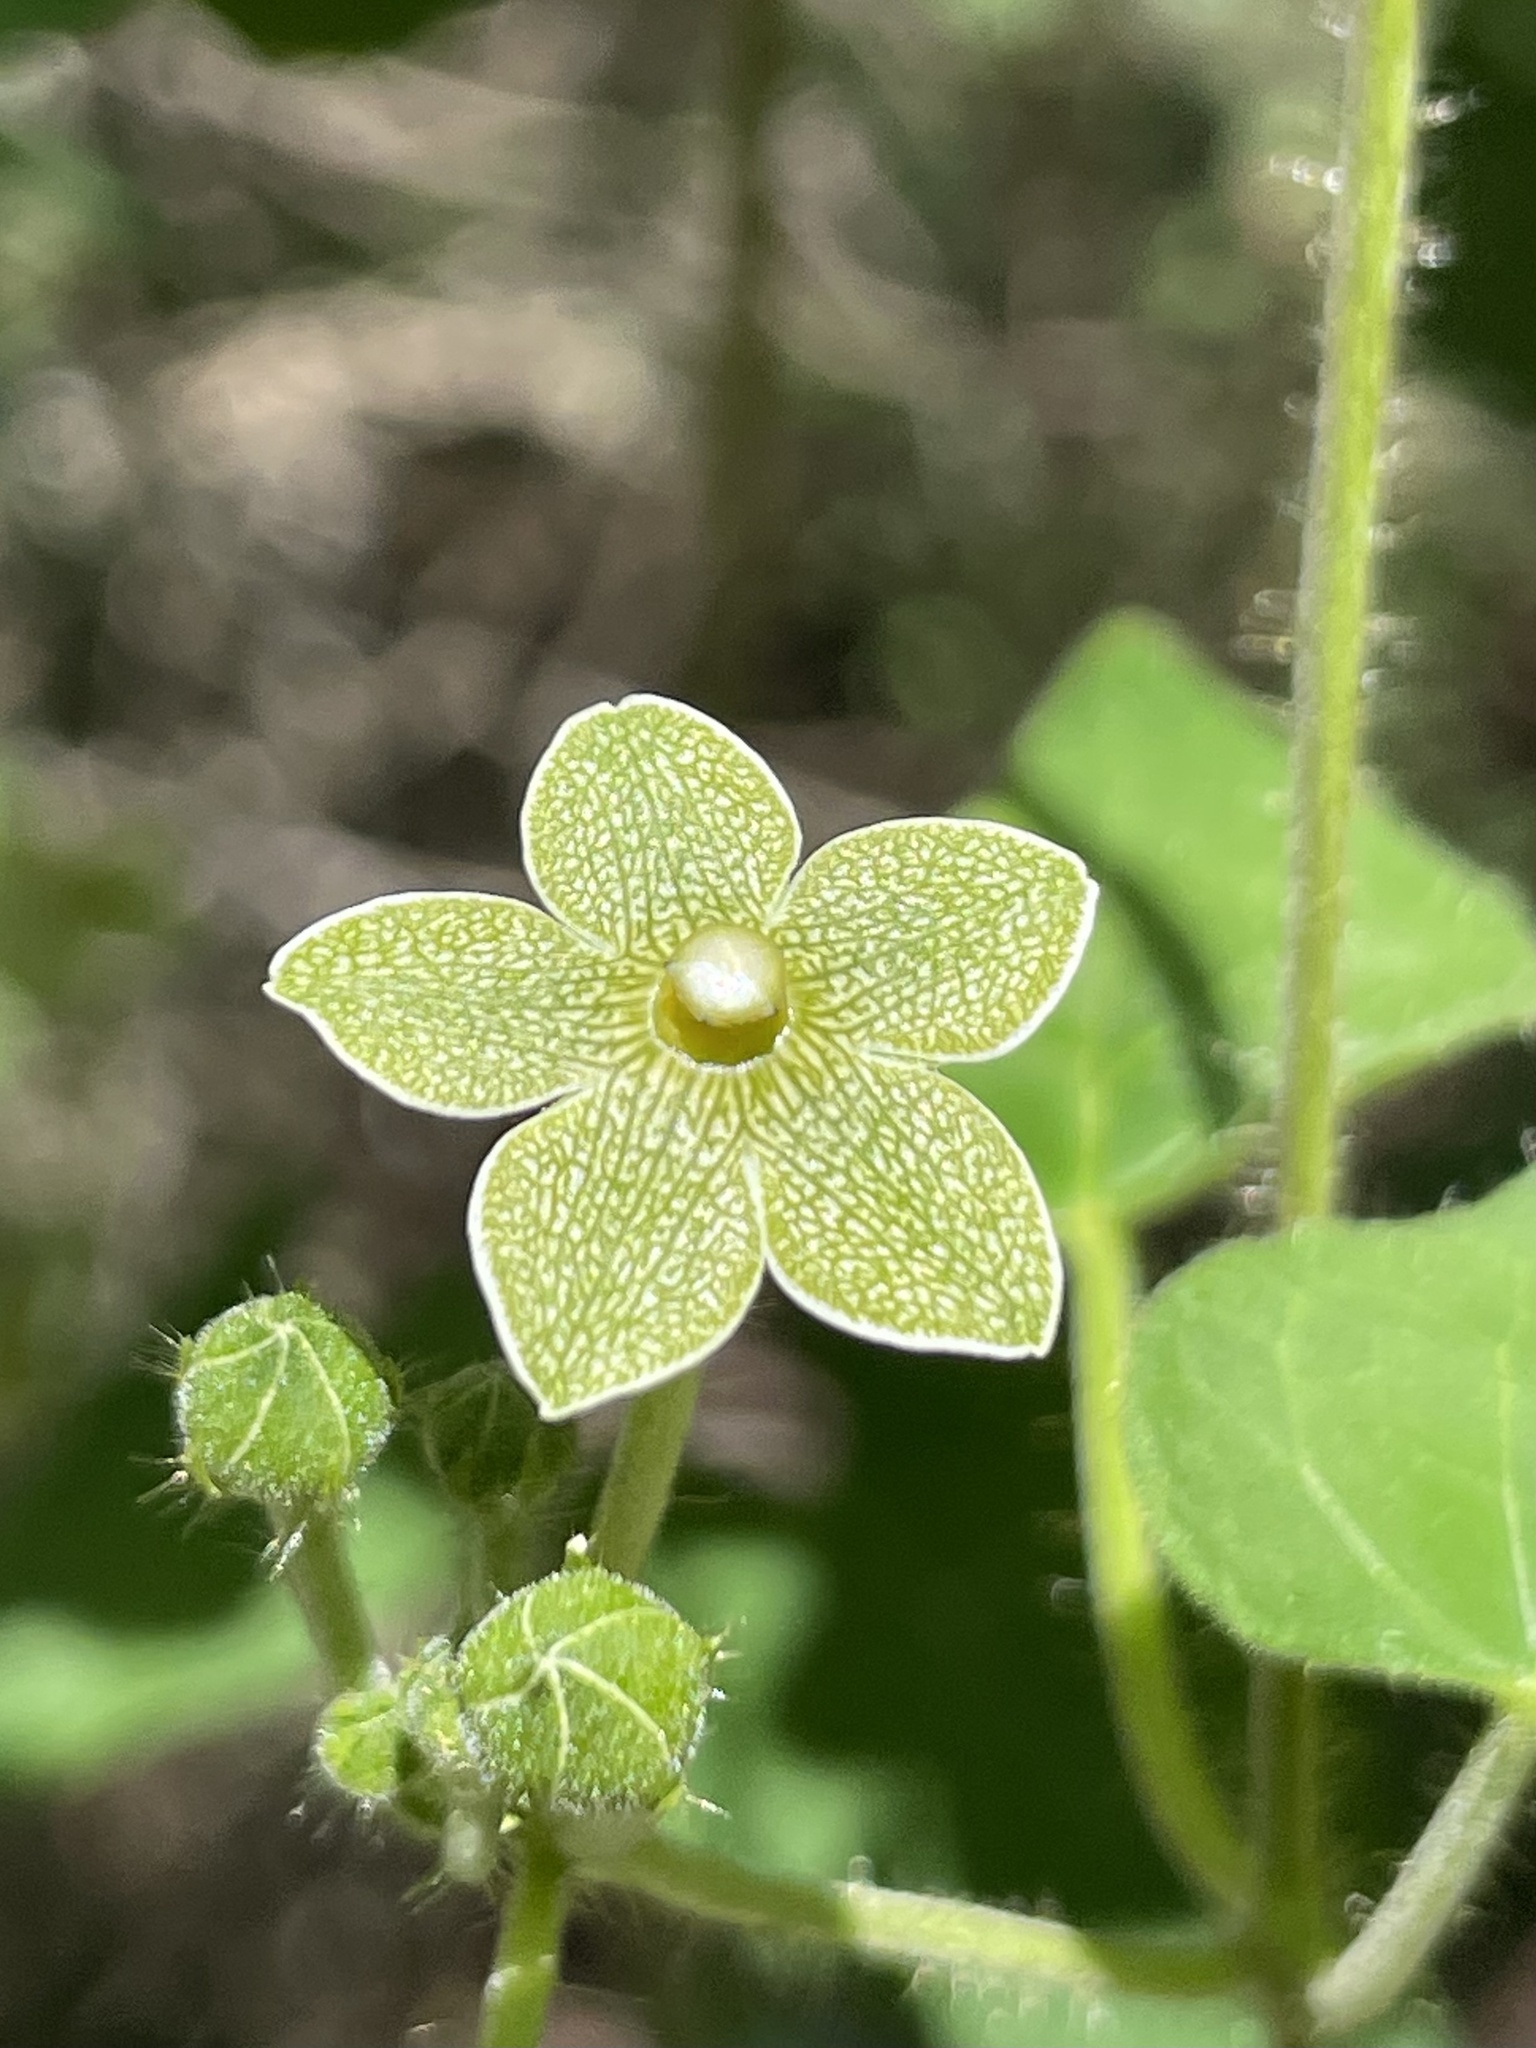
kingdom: Plantae
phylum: Tracheophyta
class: Magnoliopsida
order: Gentianales
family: Apocynaceae
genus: Dictyanthus
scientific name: Dictyanthus reticulatus
